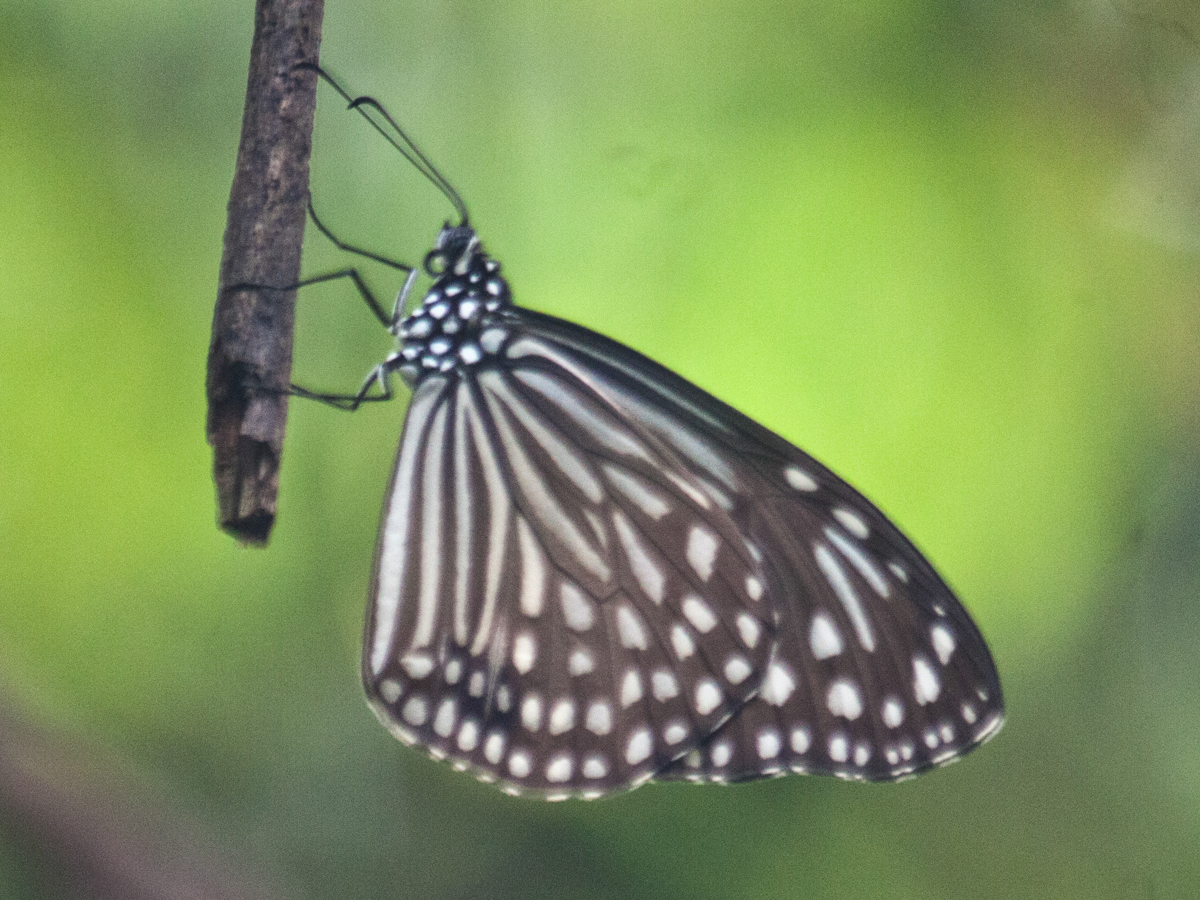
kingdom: Animalia
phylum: Arthropoda
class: Insecta
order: Lepidoptera
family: Nymphalidae
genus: Parantica
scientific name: Parantica agleoides
